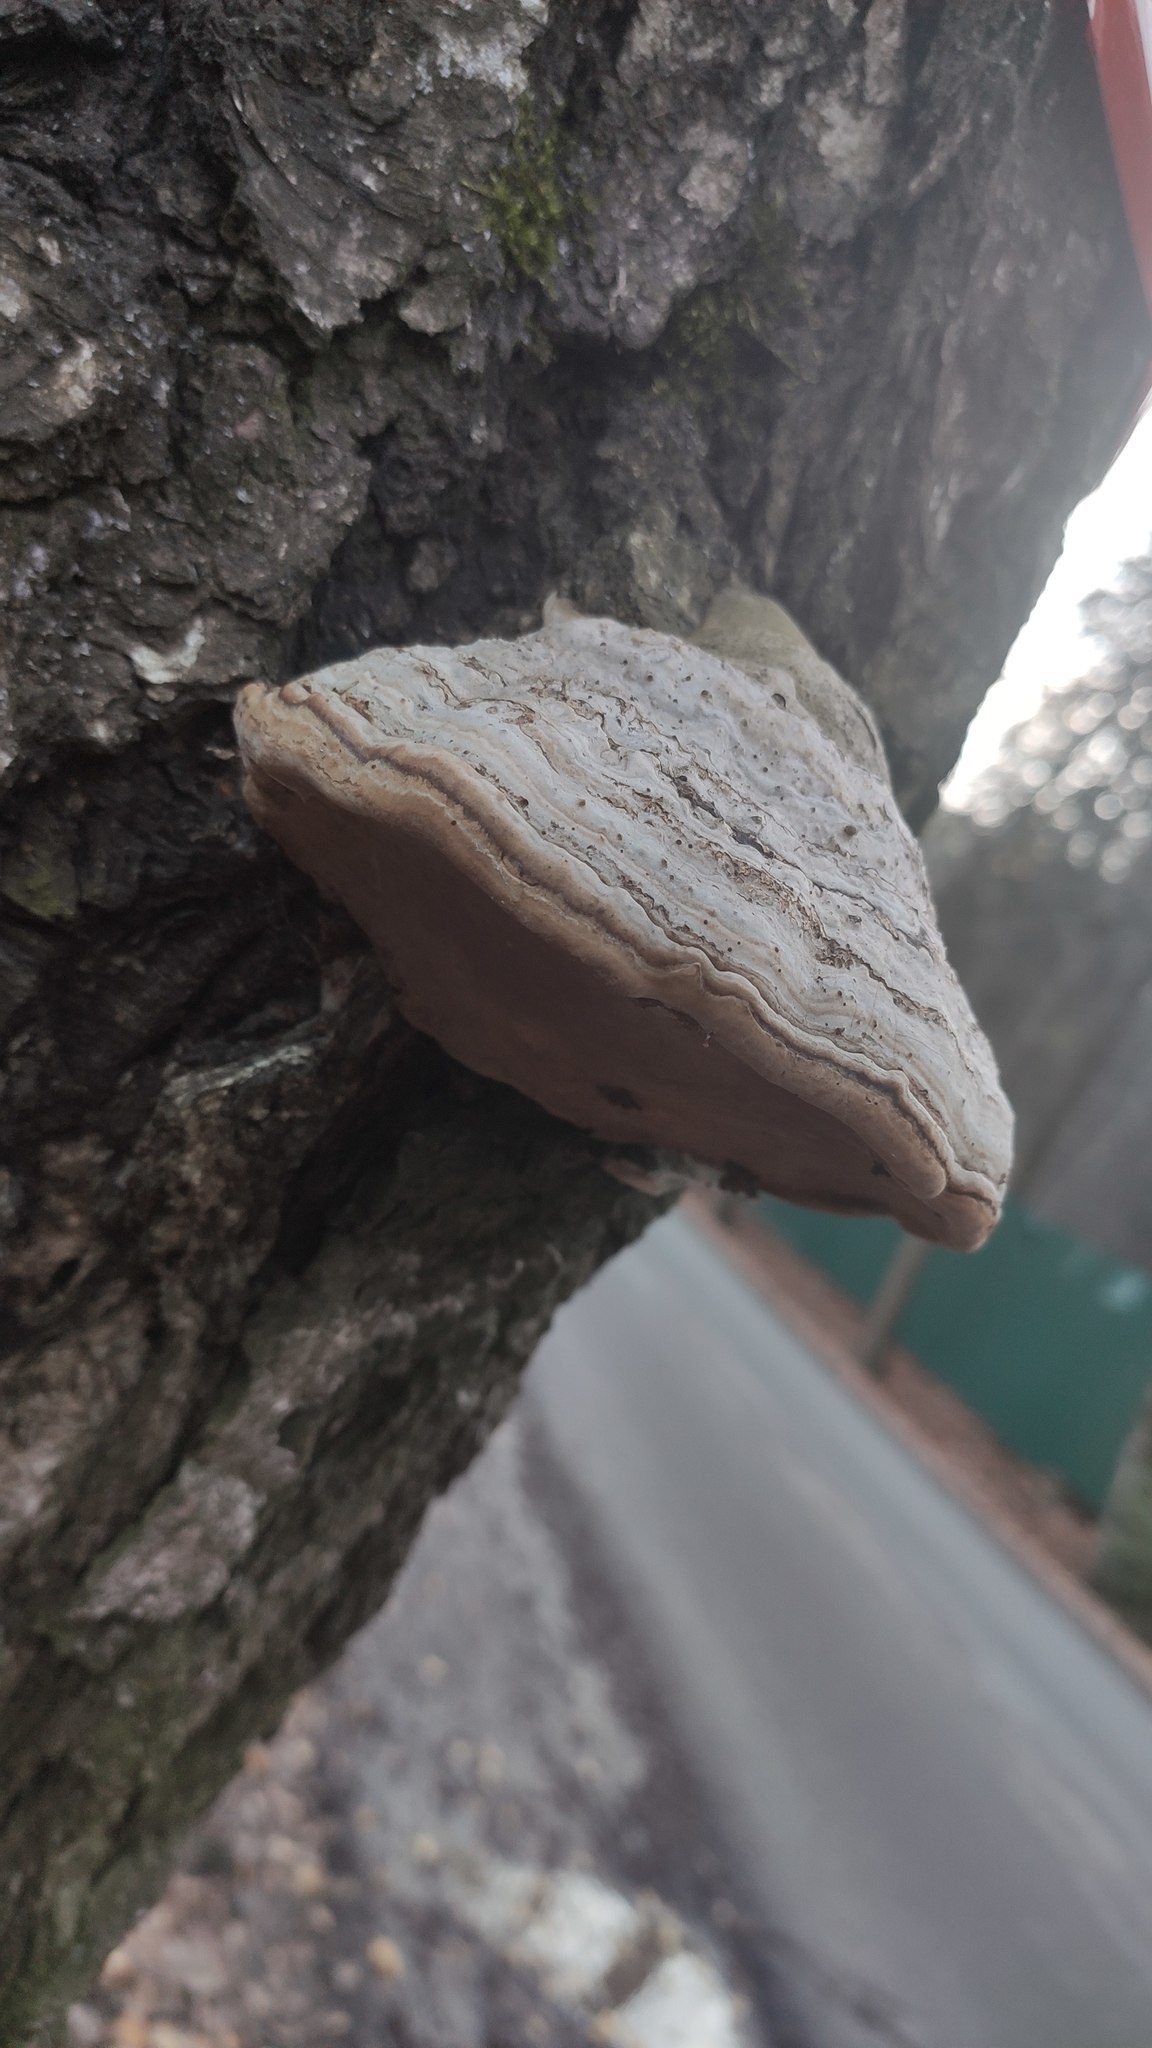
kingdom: Fungi
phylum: Basidiomycota
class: Agaricomycetes
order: Polyporales
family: Polyporaceae
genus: Fomes
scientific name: Fomes fomentarius
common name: Hoof fungus
